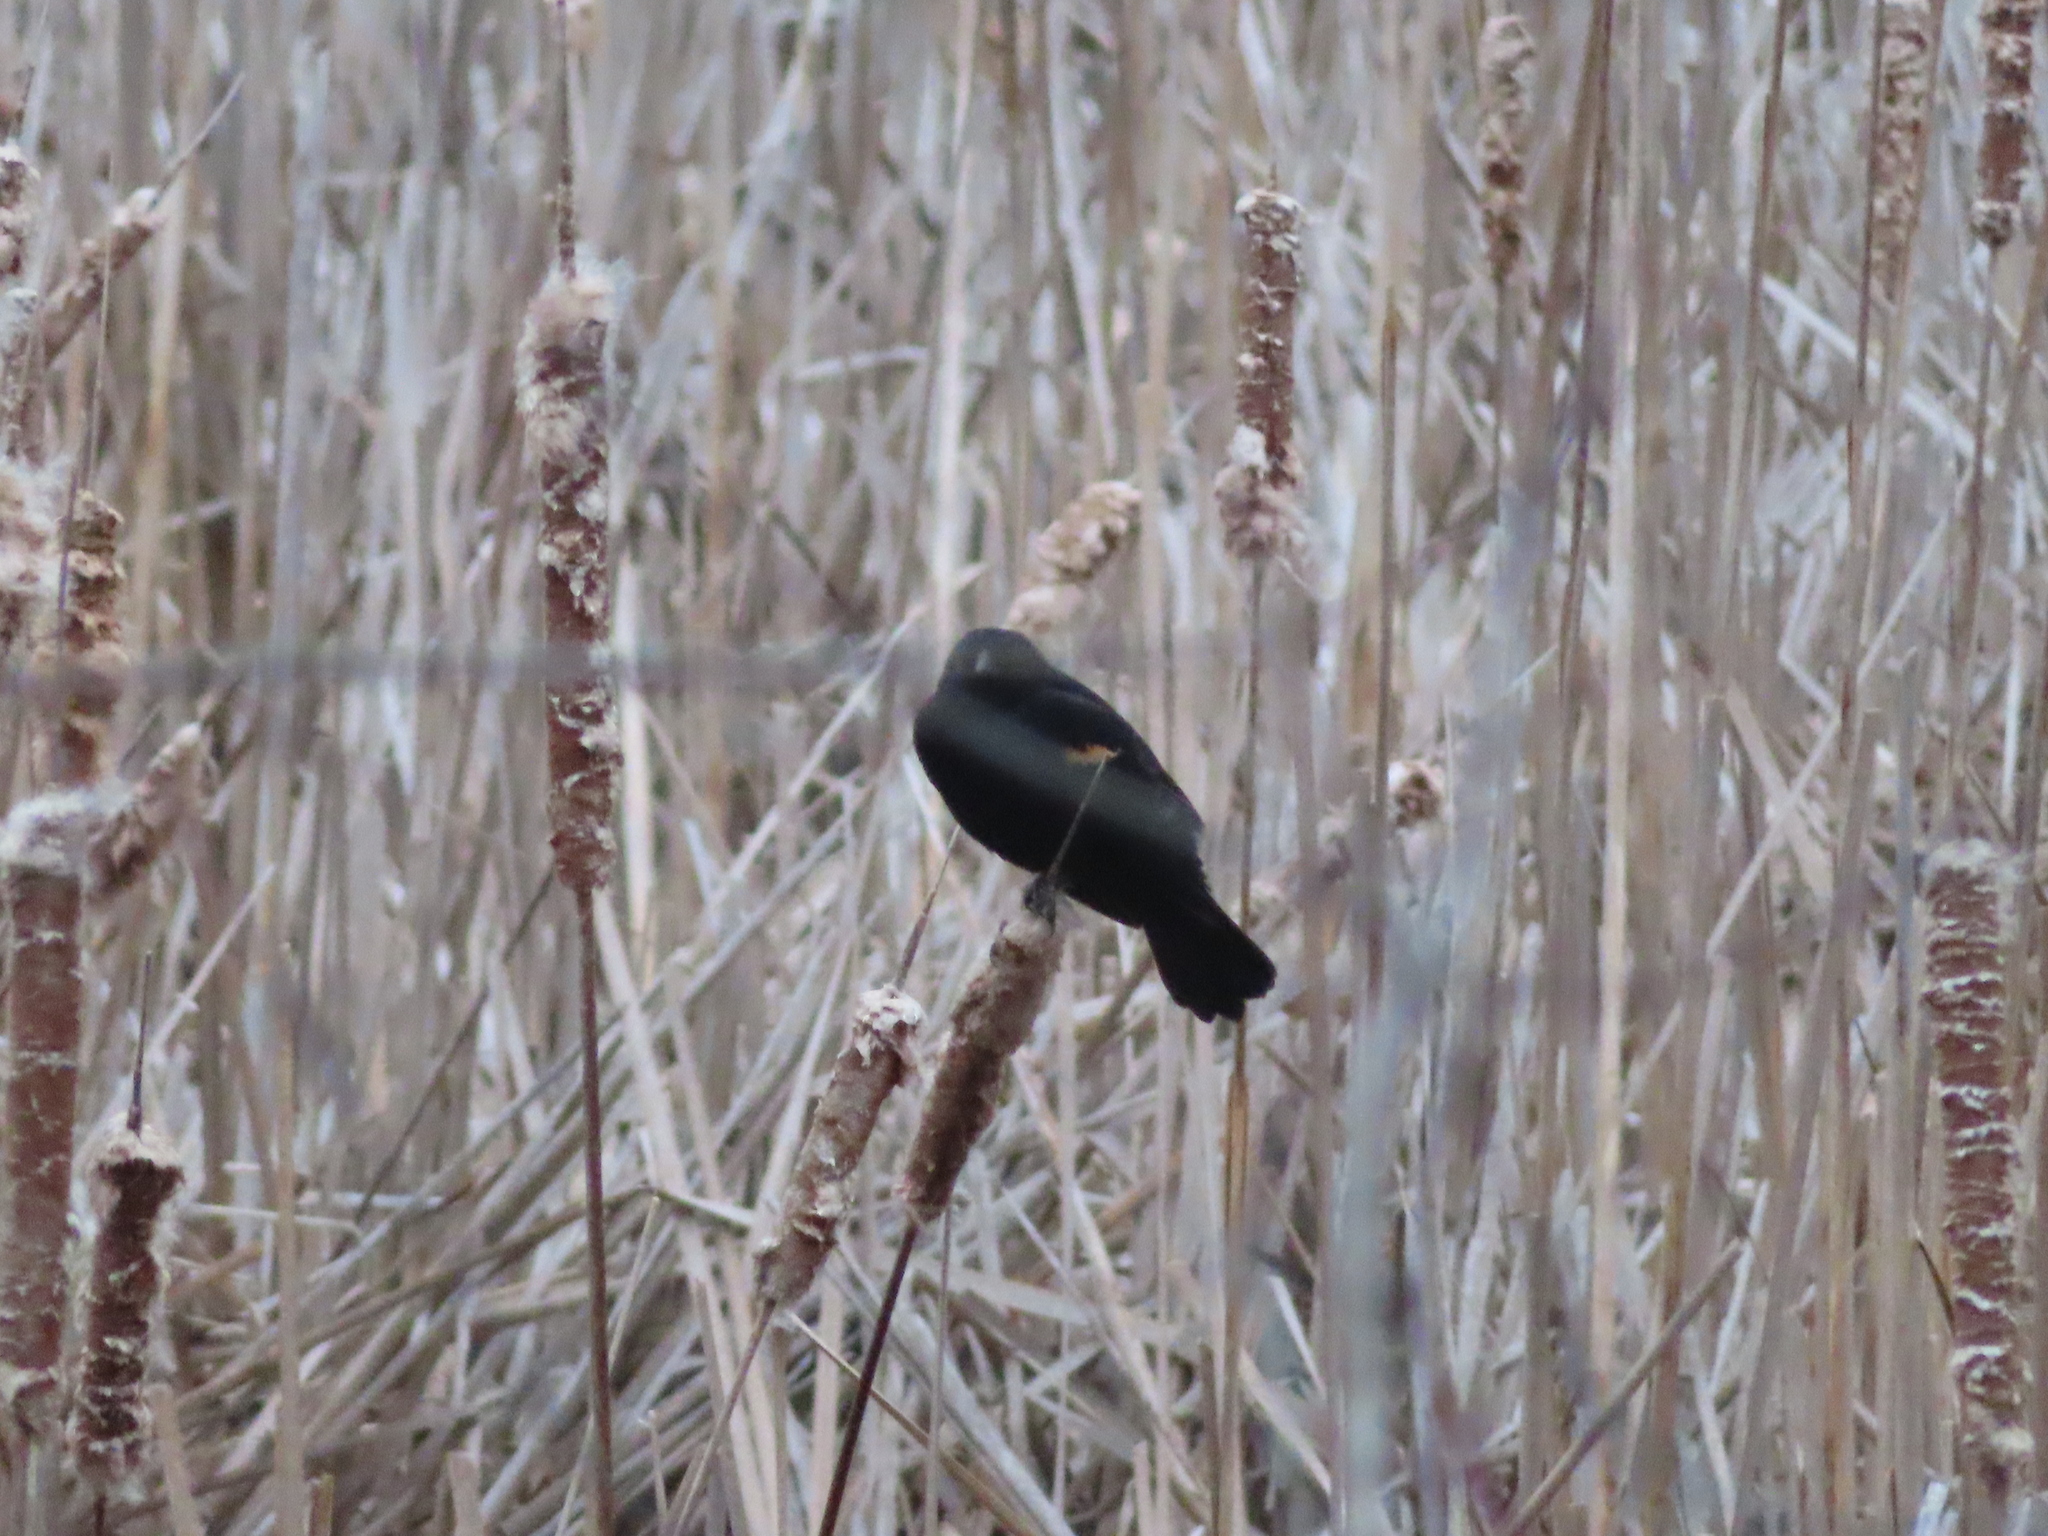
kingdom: Animalia
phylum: Chordata
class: Aves
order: Passeriformes
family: Icteridae
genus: Agelaius
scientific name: Agelaius phoeniceus
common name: Red-winged blackbird
